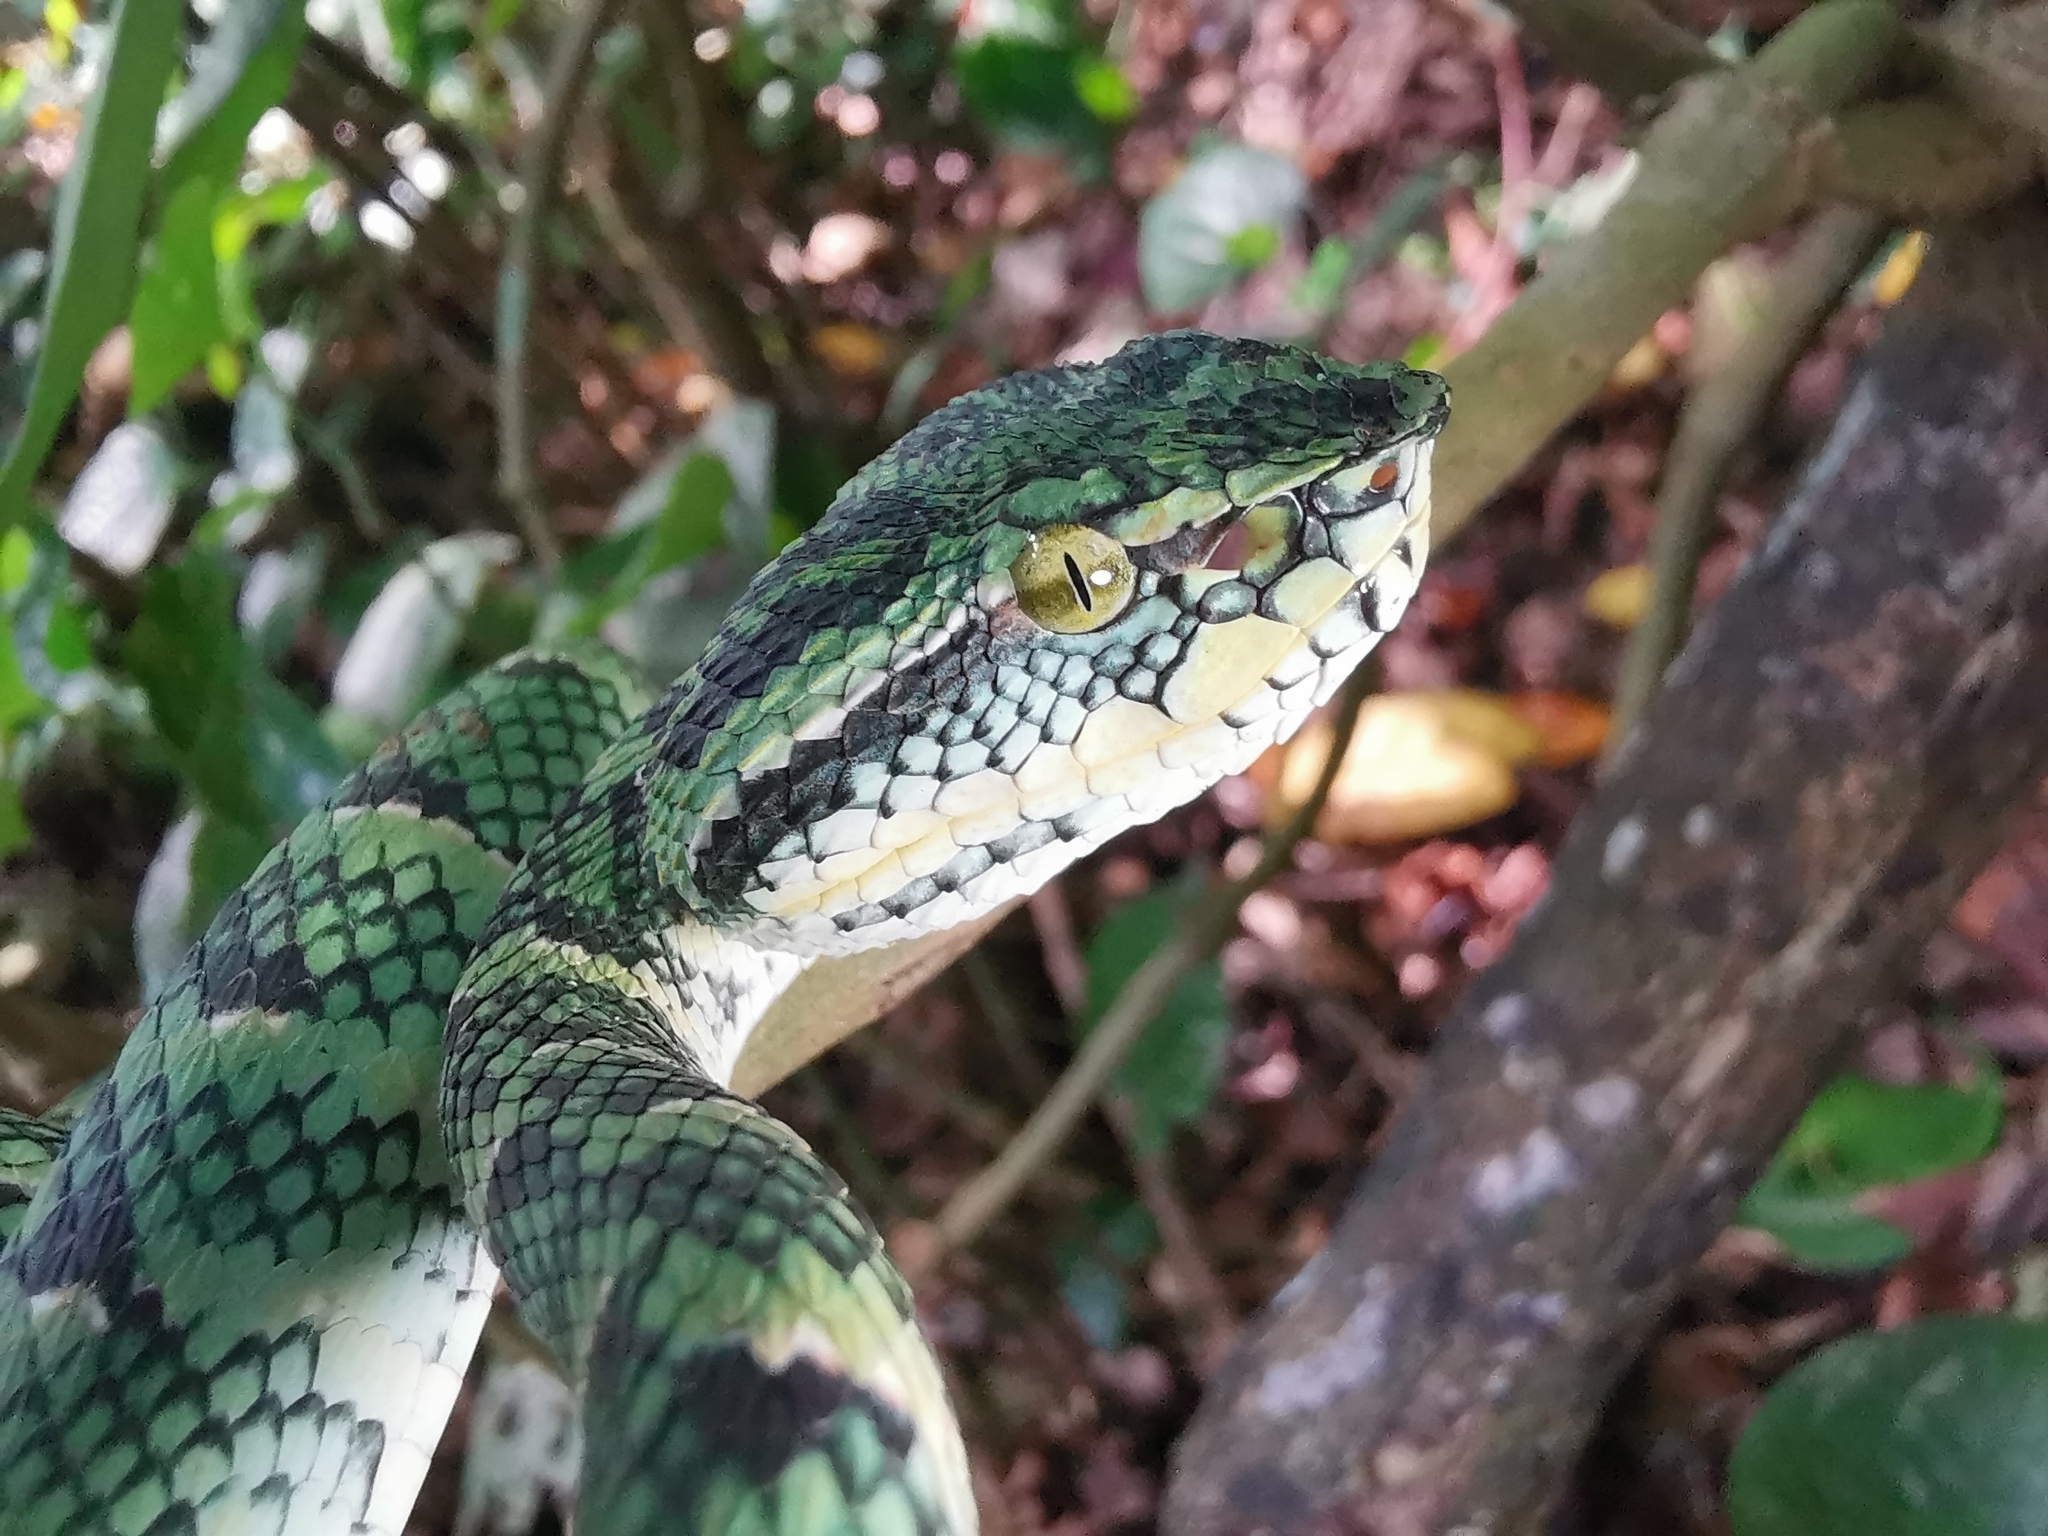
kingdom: Animalia
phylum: Chordata
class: Squamata
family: Viperidae
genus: Tropidolaemus
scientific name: Tropidolaemus wagleri
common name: Wagler's palm viper
